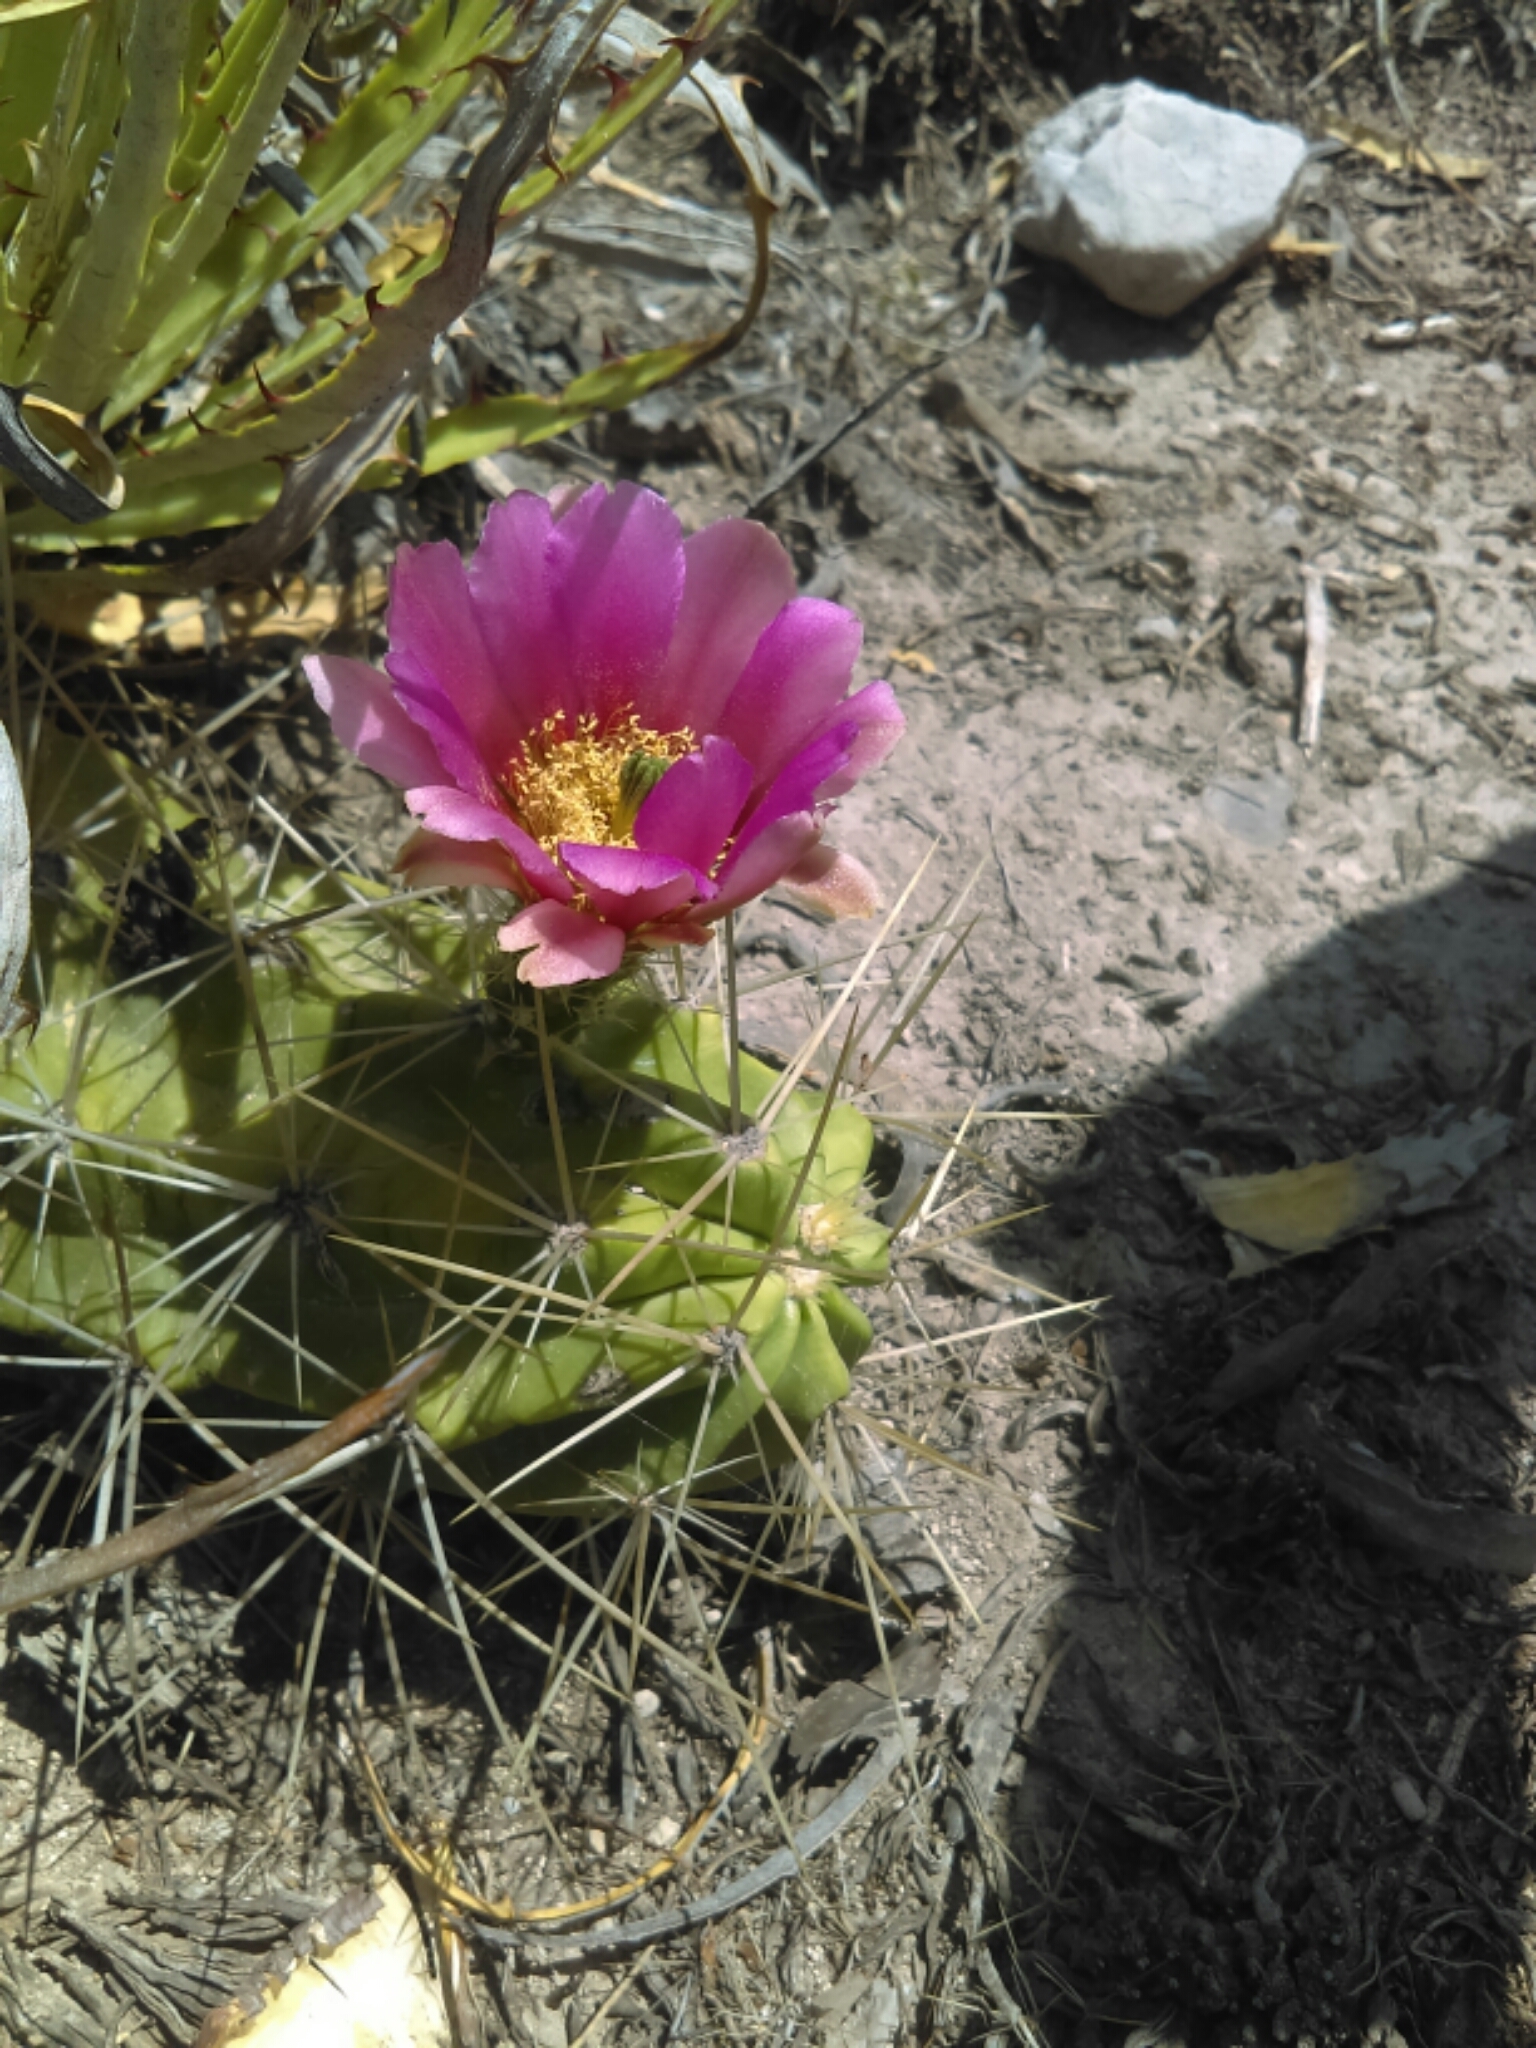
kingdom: Plantae
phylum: Tracheophyta
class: Magnoliopsida
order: Caryophyllales
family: Cactaceae
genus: Echinocereus
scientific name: Echinocereus enneacanthus
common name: Pitaya
